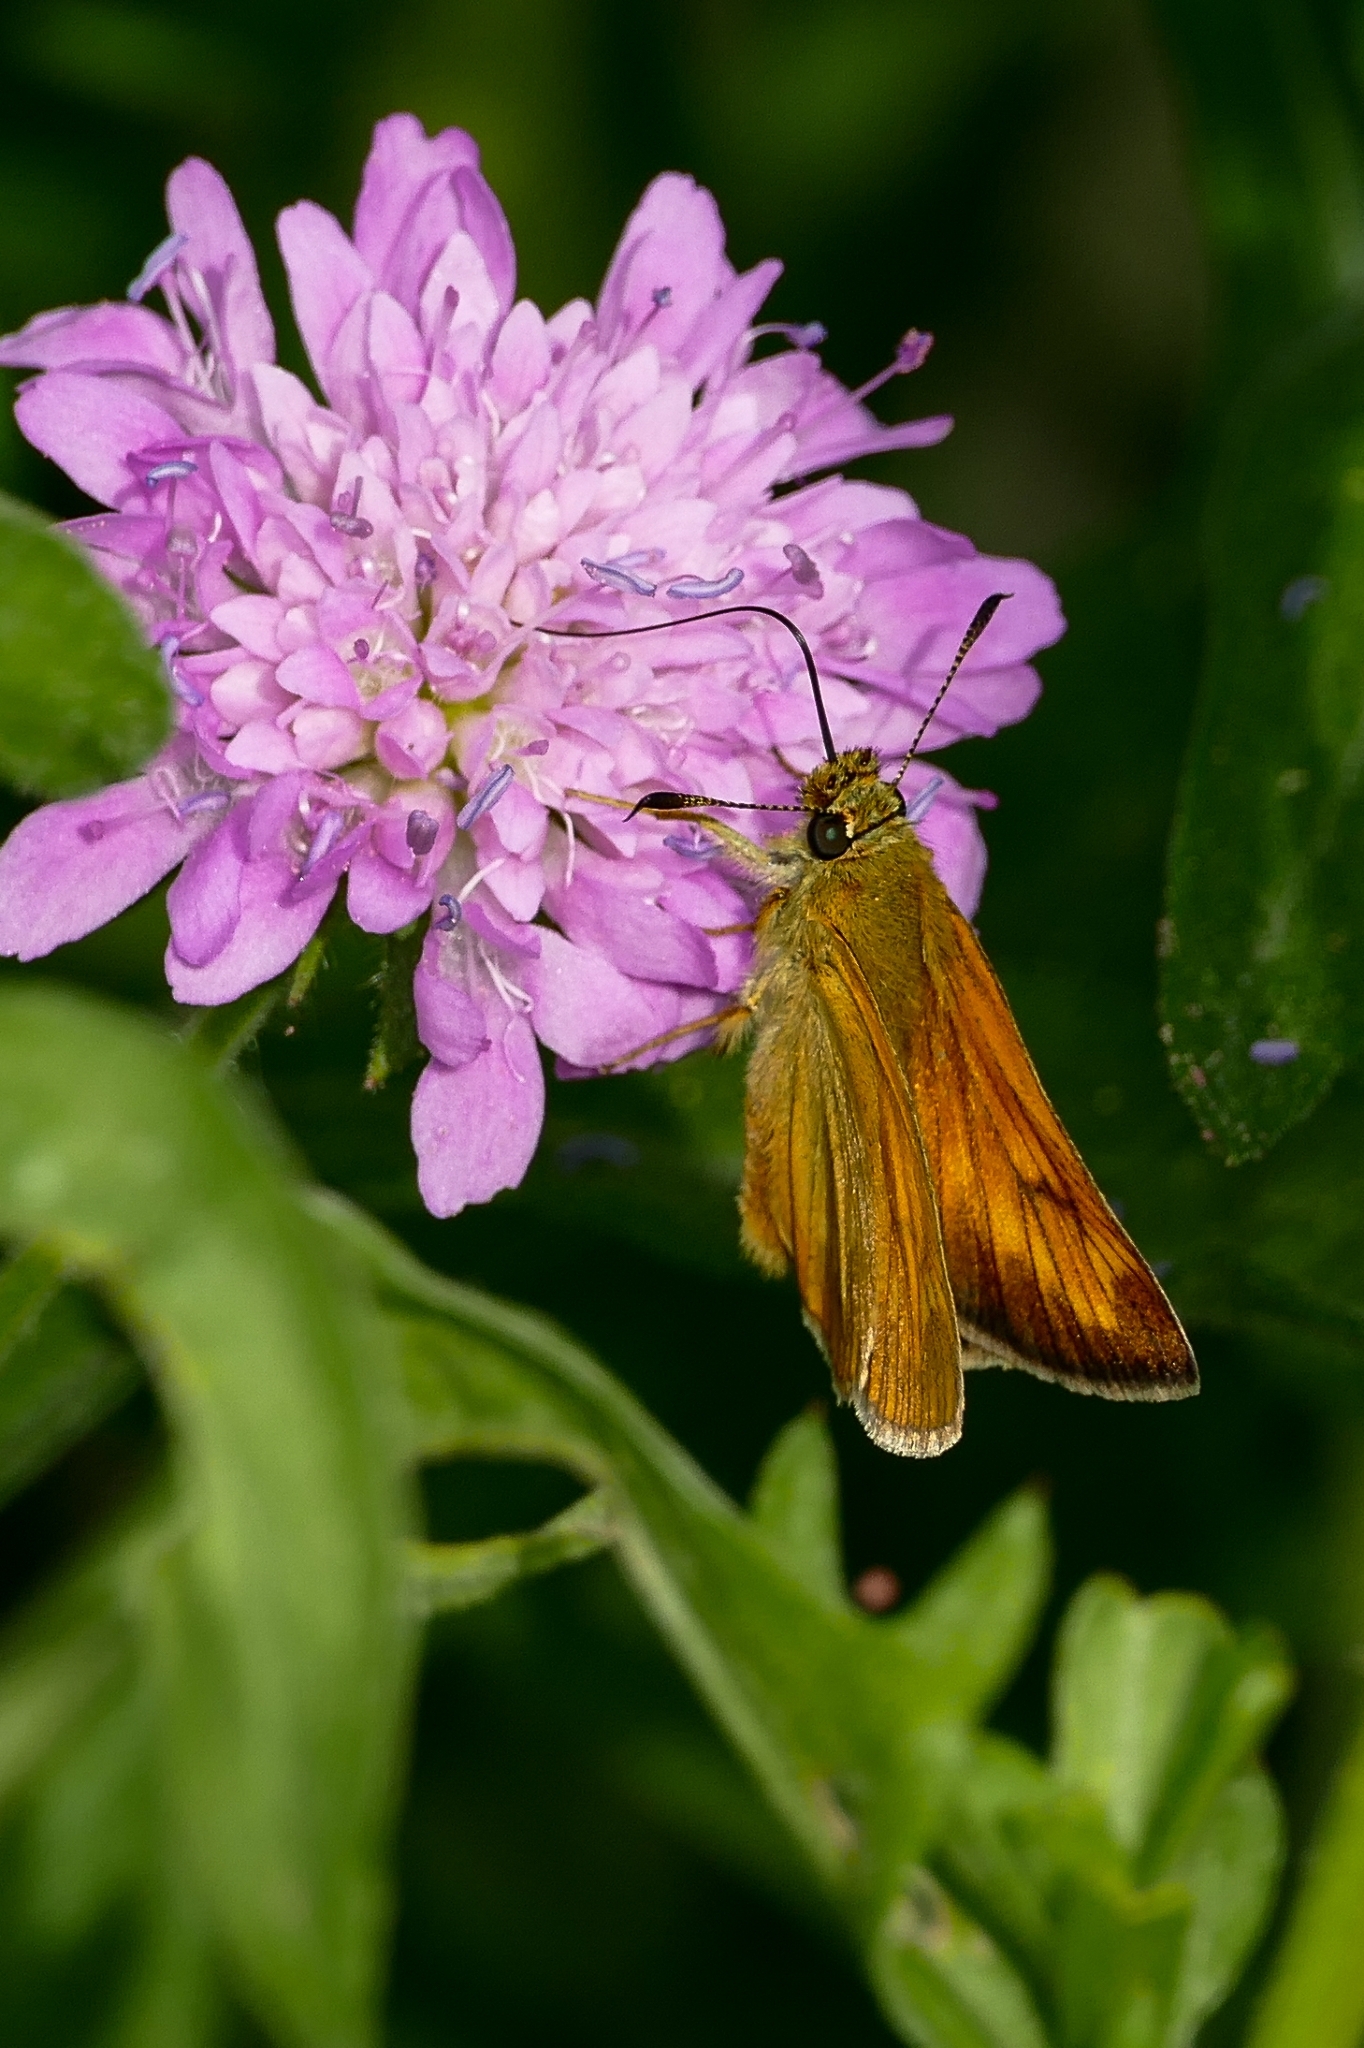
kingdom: Animalia
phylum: Arthropoda
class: Insecta
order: Lepidoptera
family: Hesperiidae
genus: Ochlodes
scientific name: Ochlodes venata
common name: Large skipper
